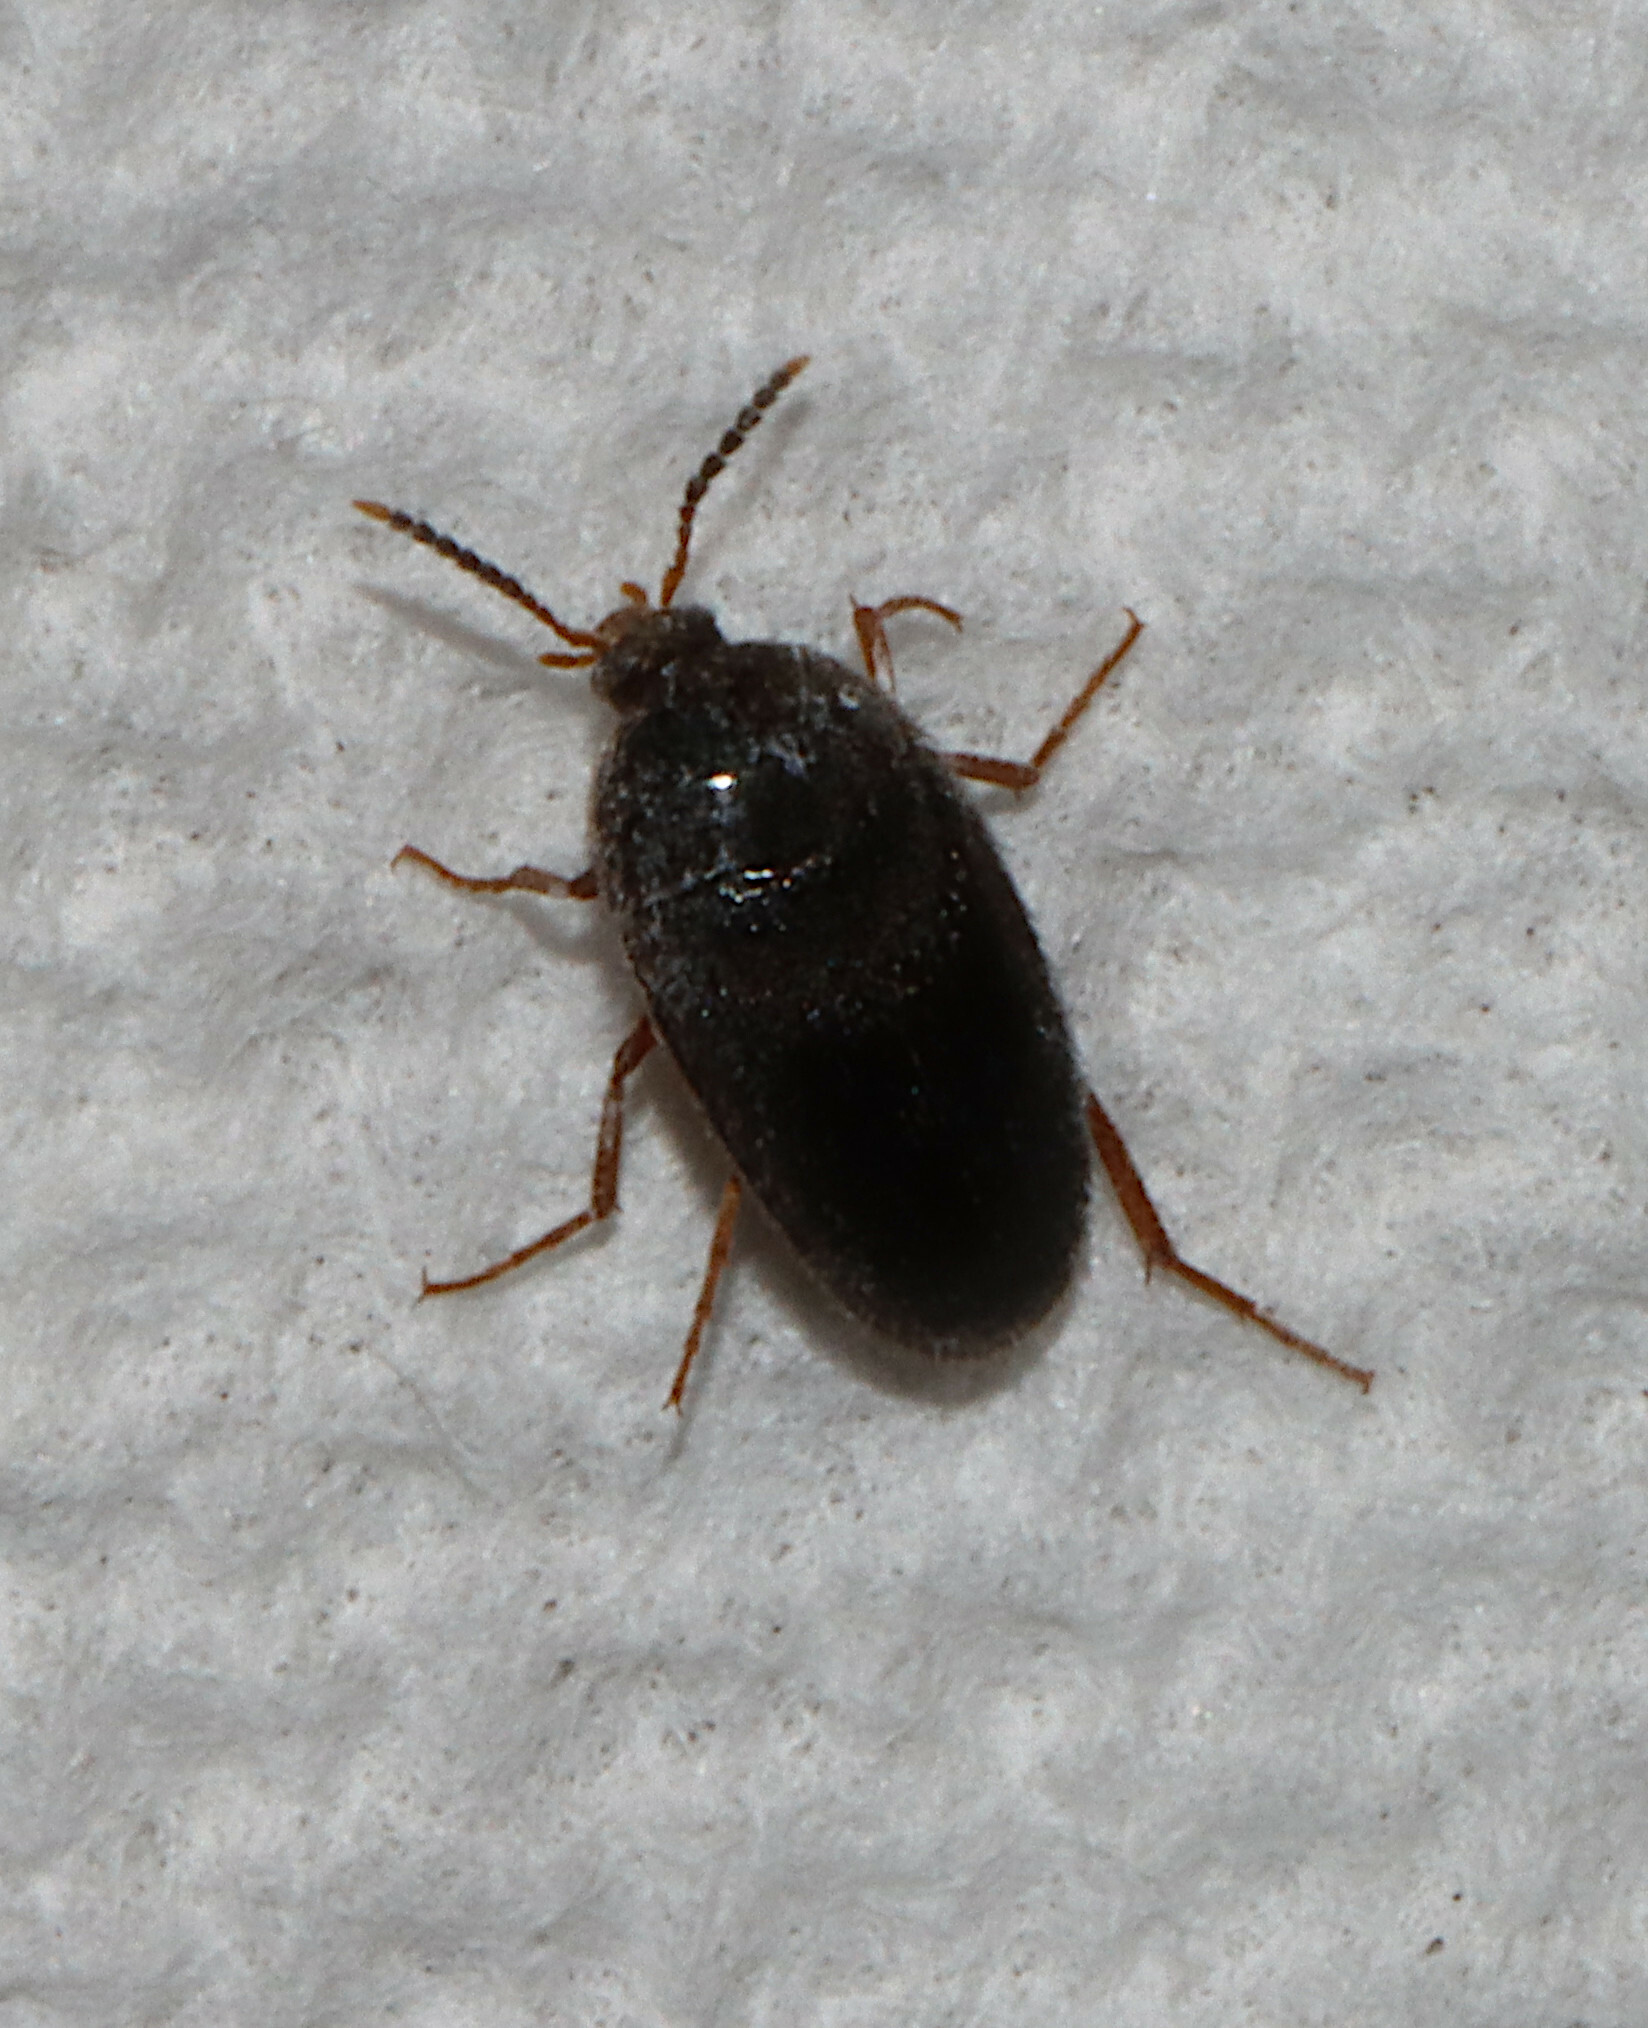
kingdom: Animalia
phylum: Arthropoda
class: Insecta
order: Coleoptera
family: Tetratomidae
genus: Eustrophopsis
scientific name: Eustrophopsis bicolor
